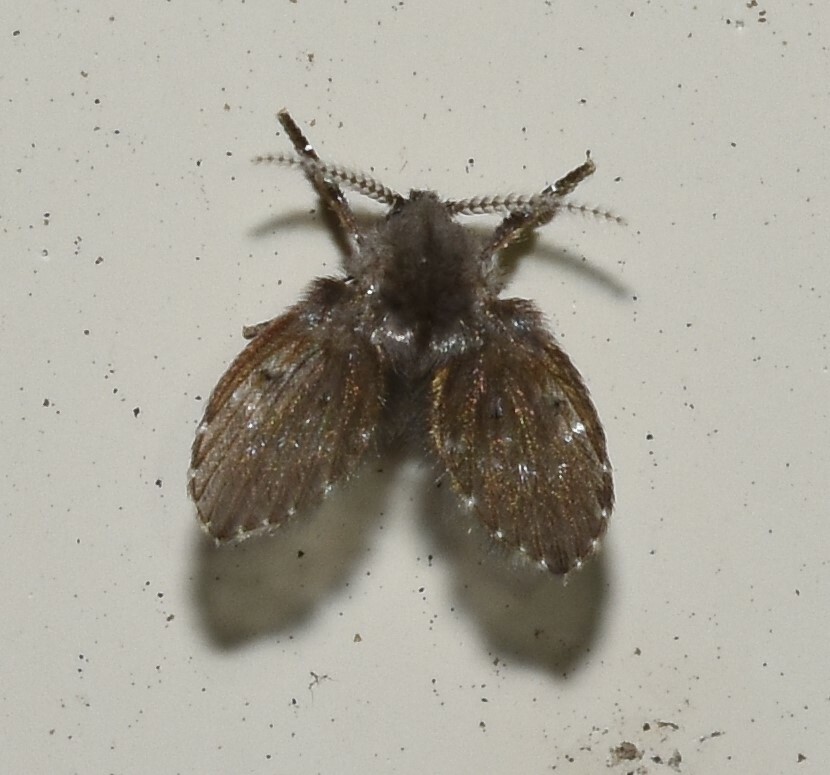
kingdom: Animalia
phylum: Arthropoda
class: Insecta
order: Diptera
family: Psychodidae
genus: Clogmia
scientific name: Clogmia albipunctatus
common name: White-spotted moth fly
